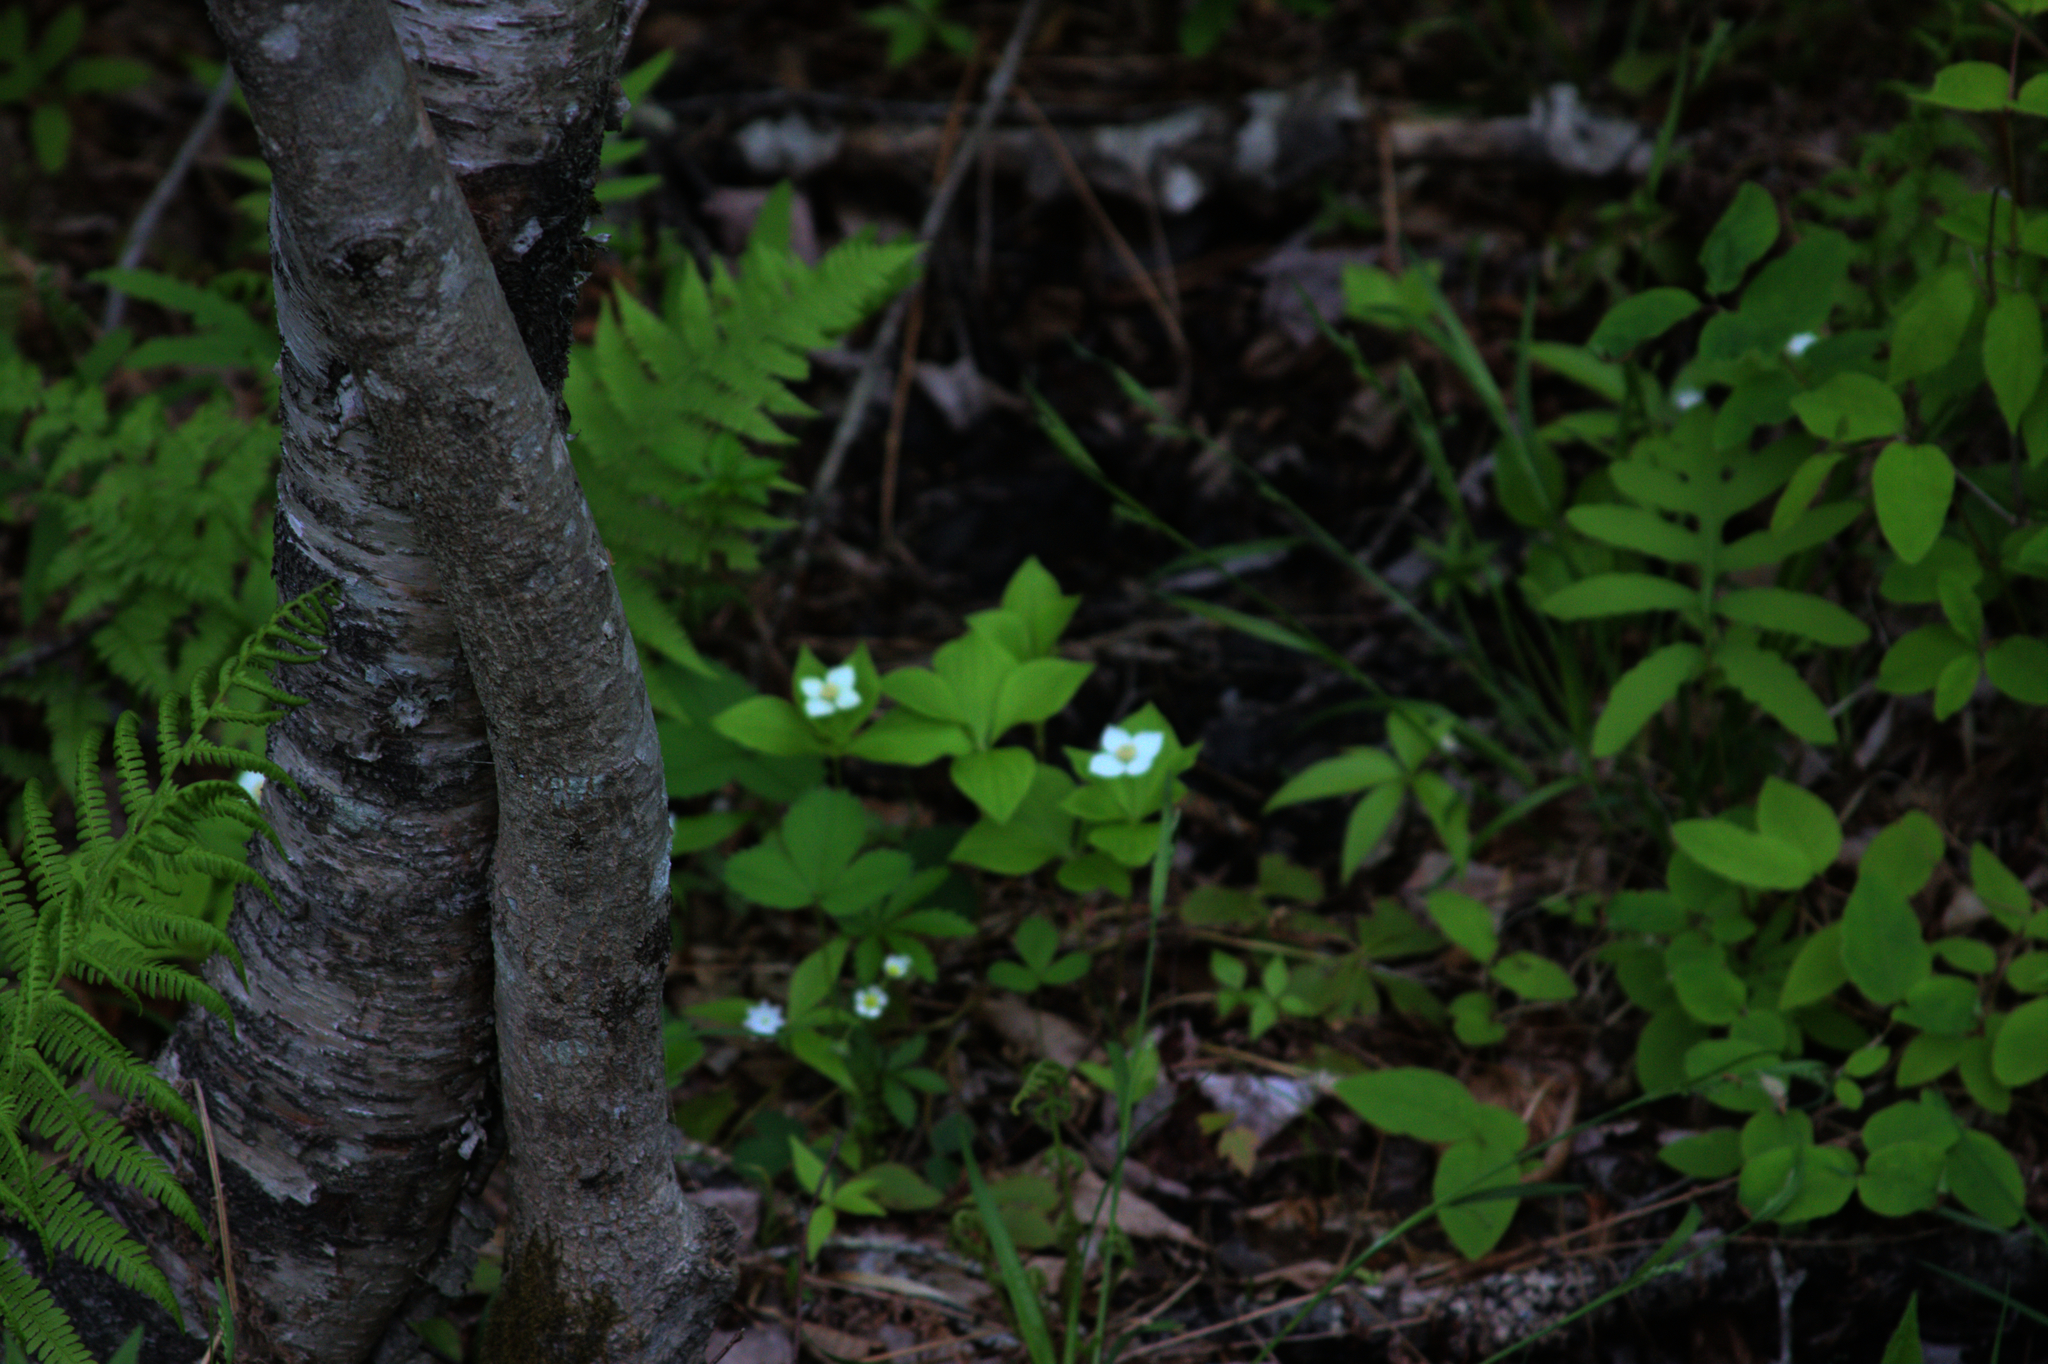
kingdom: Plantae
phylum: Tracheophyta
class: Polypodiopsida
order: Polypodiales
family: Onocleaceae
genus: Onoclea
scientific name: Onoclea sensibilis
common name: Sensitive fern
